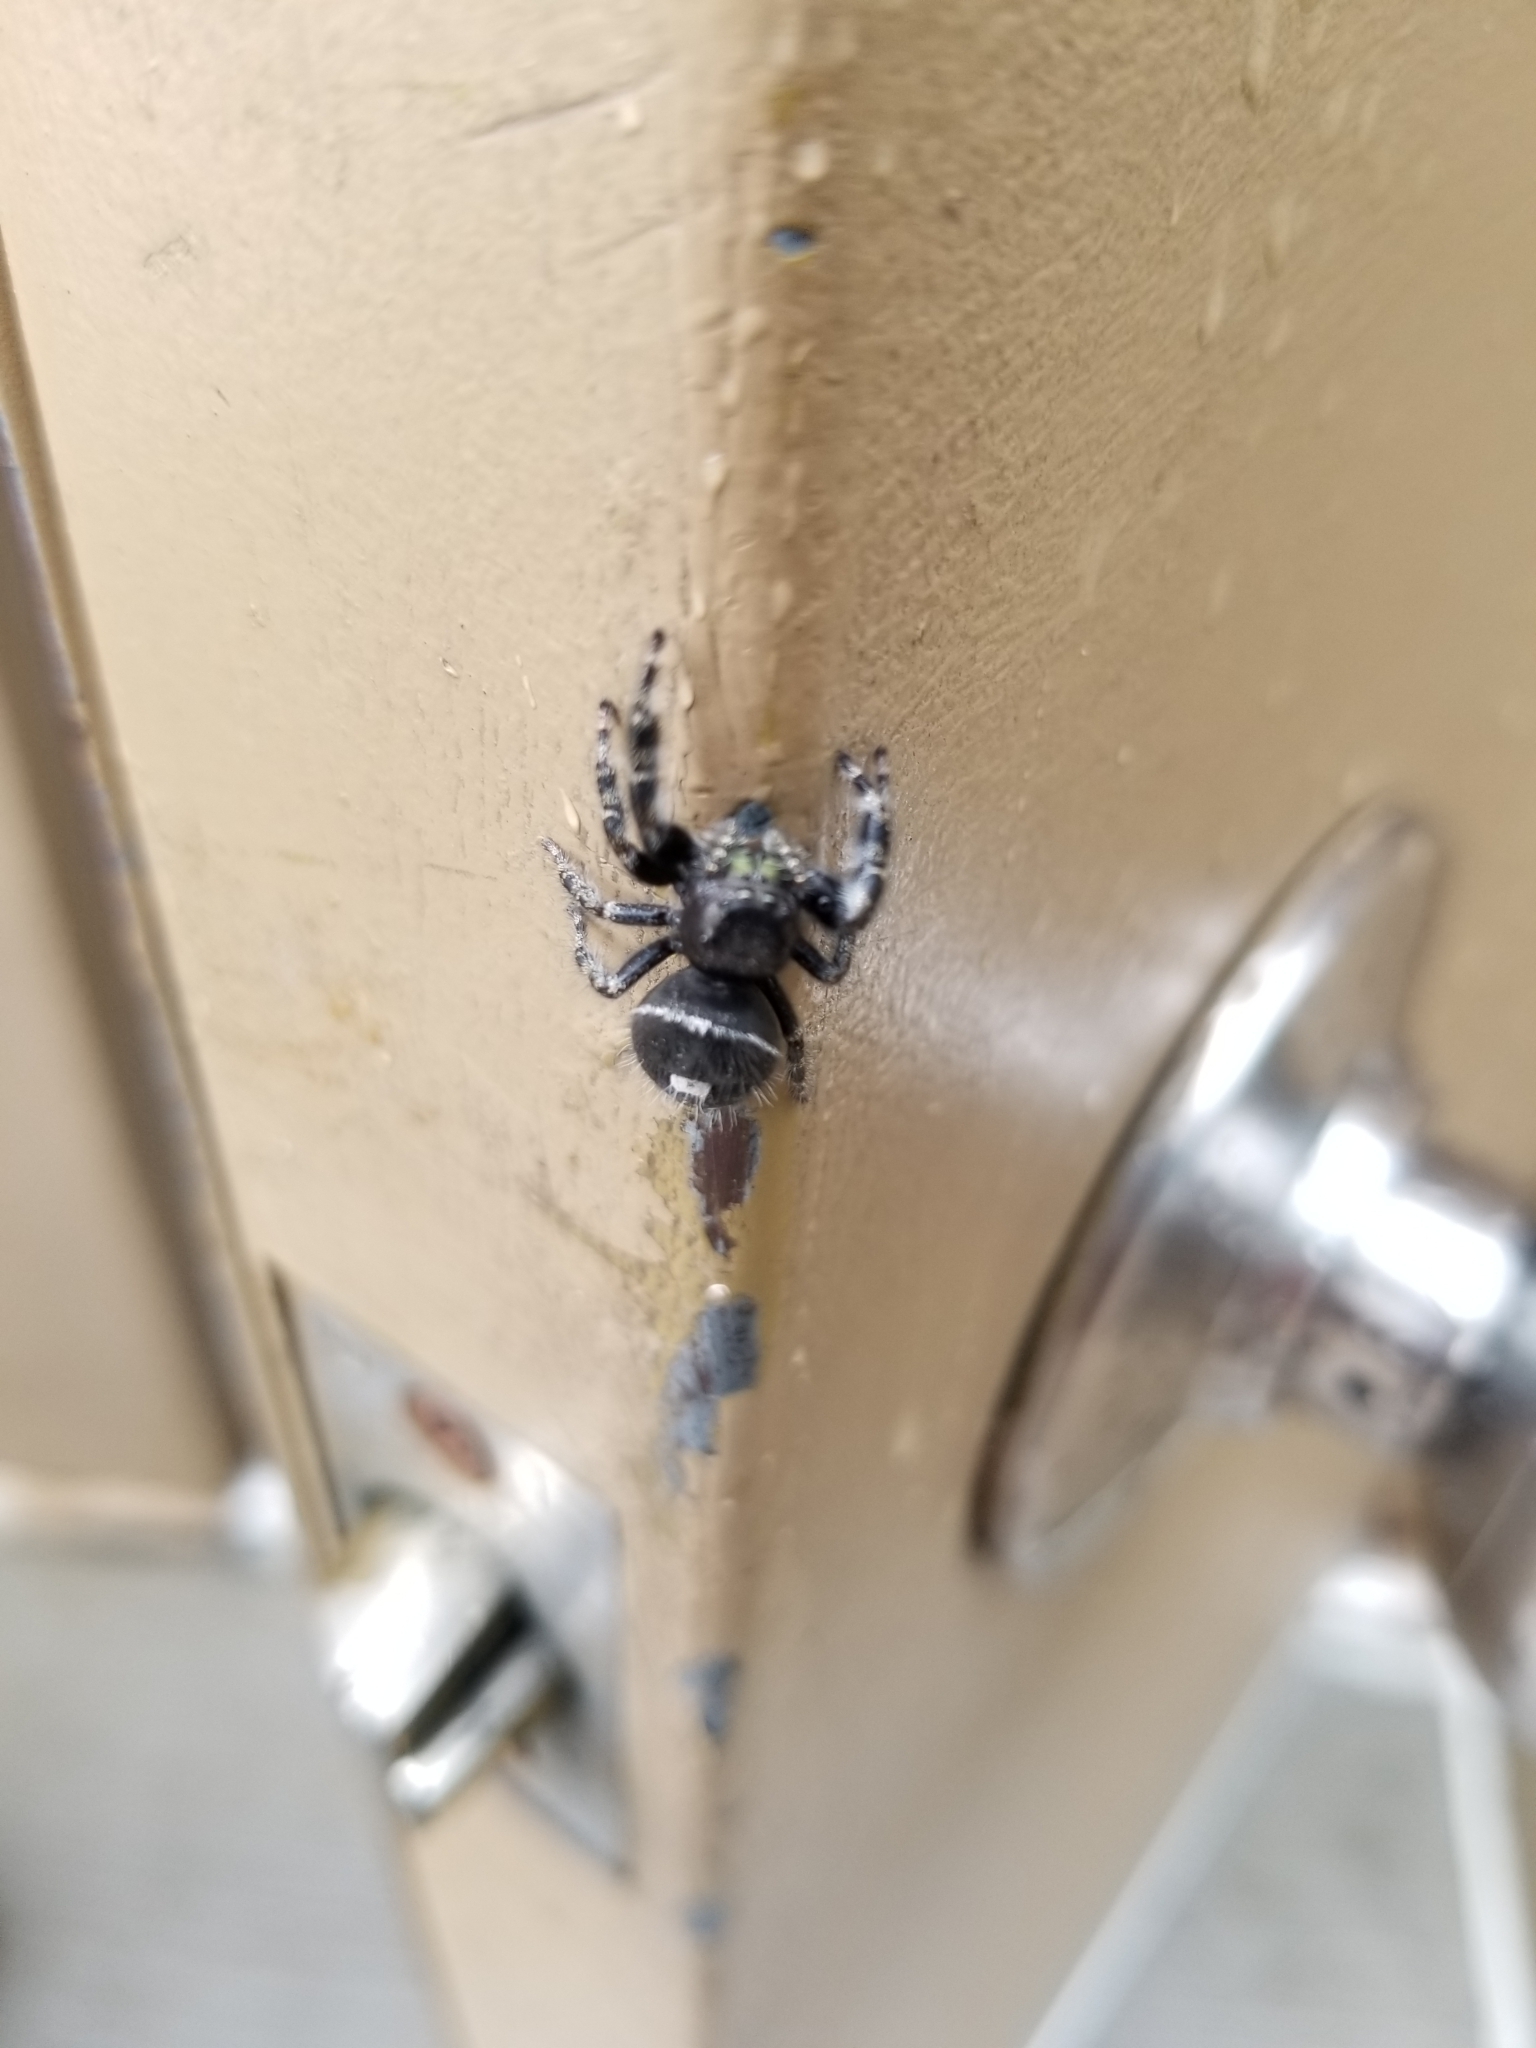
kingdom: Animalia
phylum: Arthropoda
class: Arachnida
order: Araneae
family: Salticidae
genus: Phidippus
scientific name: Phidippus audax
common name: Bold jumper
